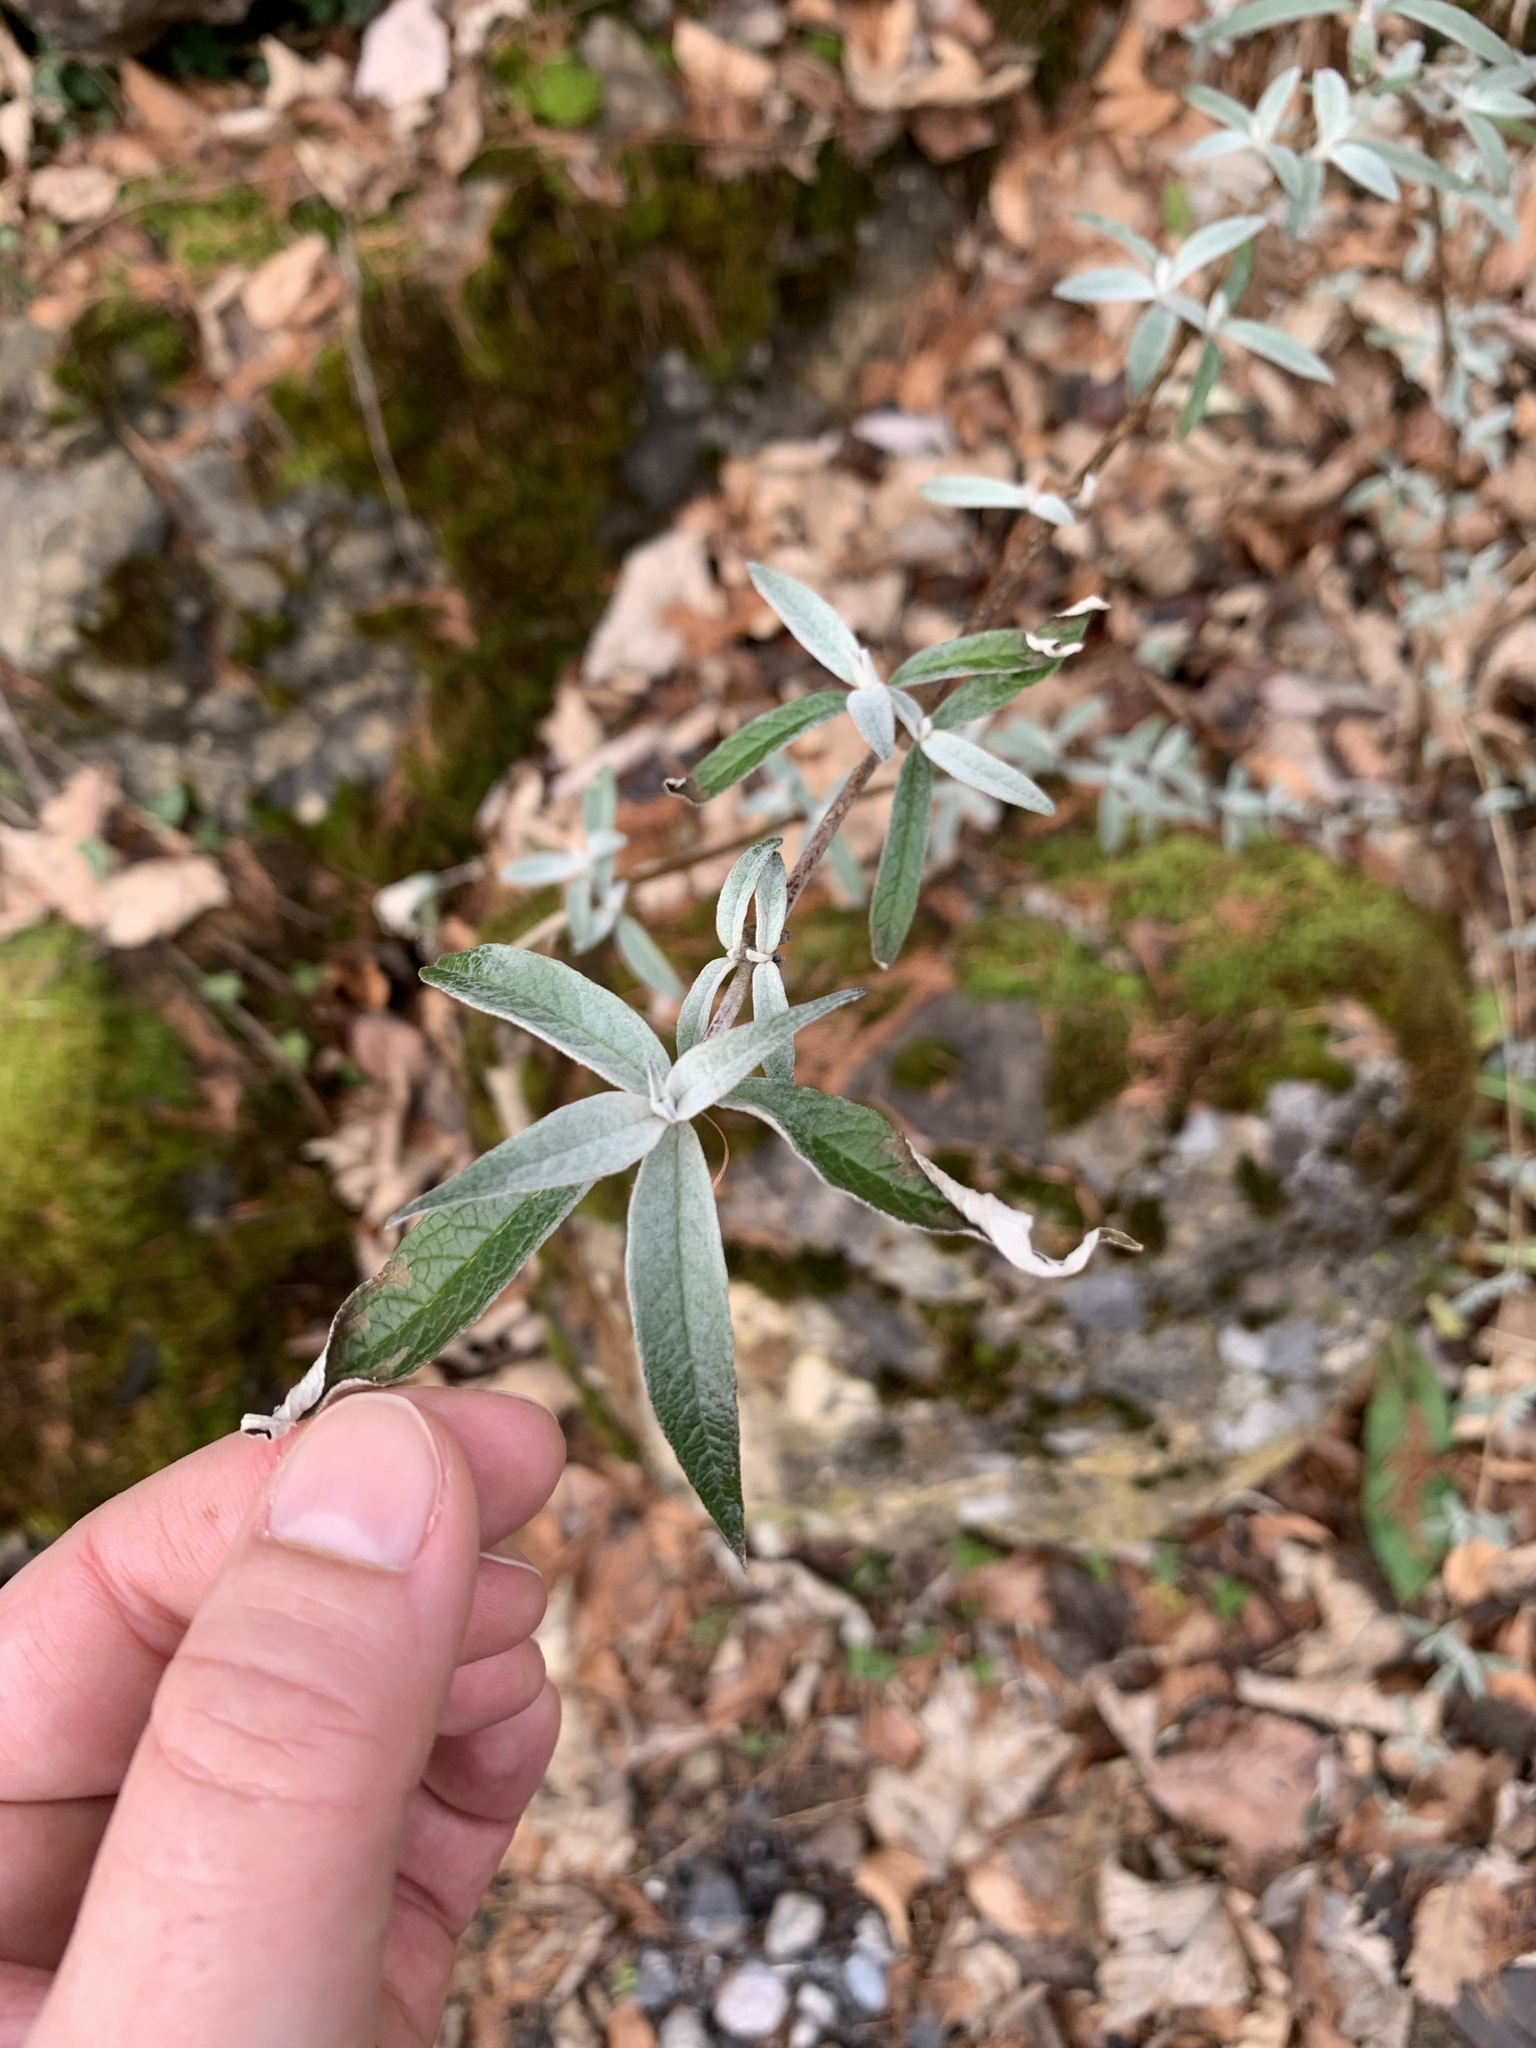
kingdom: Plantae
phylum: Tracheophyta
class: Magnoliopsida
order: Lamiales
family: Scrophulariaceae
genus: Buddleja
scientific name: Buddleja davidii
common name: Butterfly-bush
